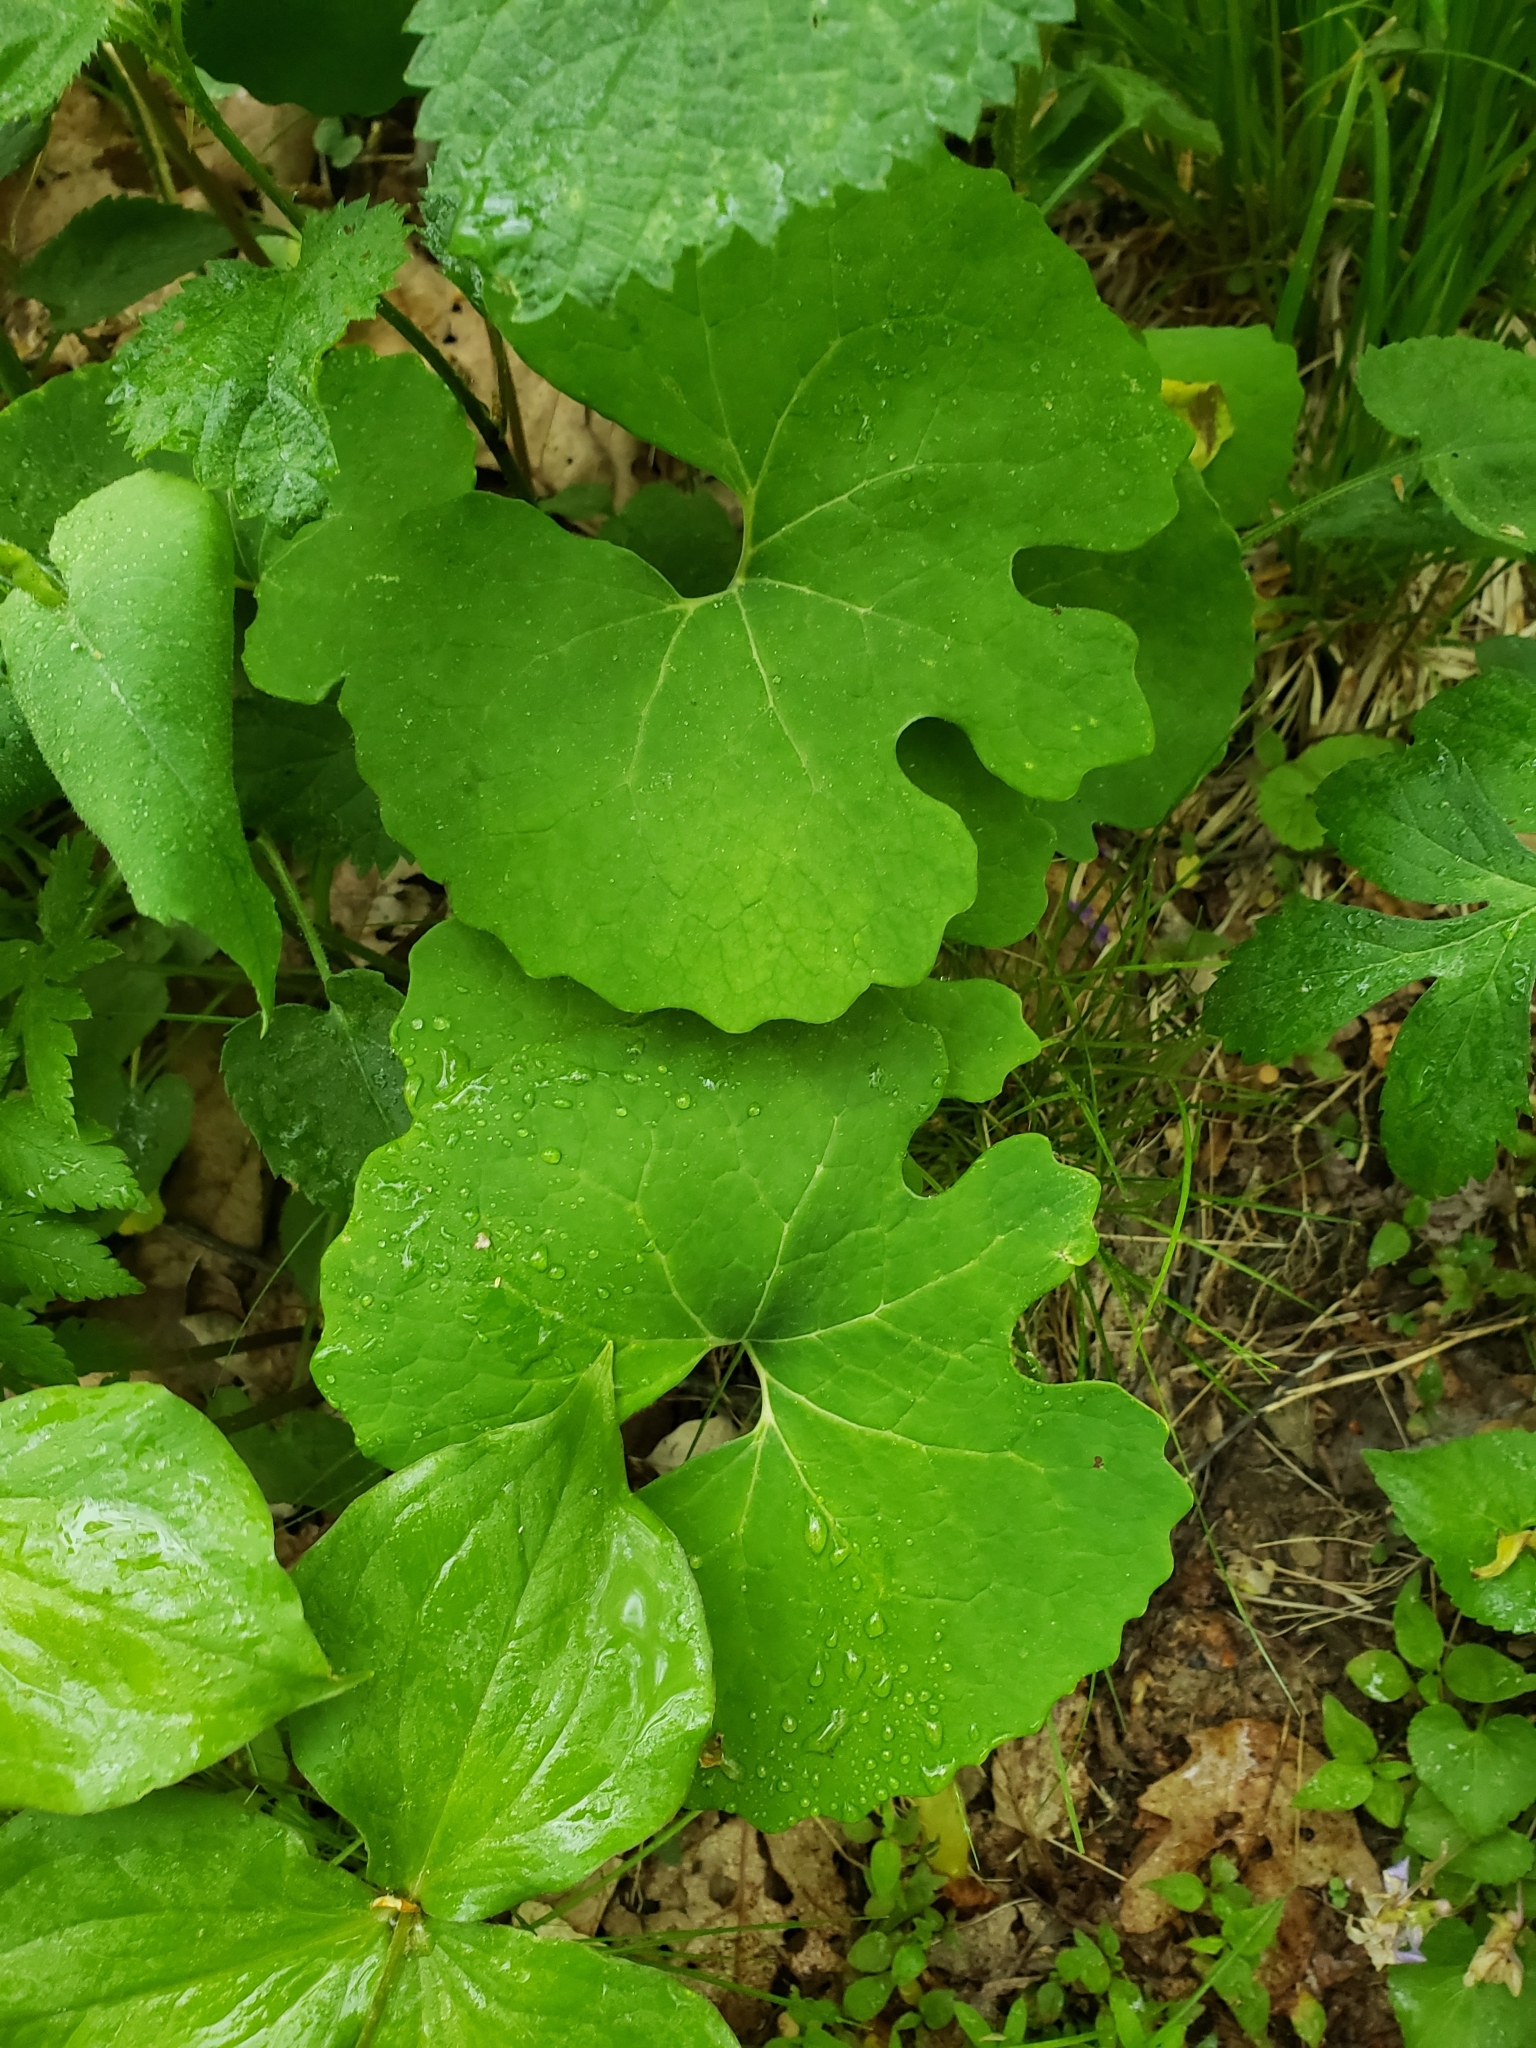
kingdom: Plantae
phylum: Tracheophyta
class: Magnoliopsida
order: Ranunculales
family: Papaveraceae
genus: Sanguinaria
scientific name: Sanguinaria canadensis
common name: Bloodroot
